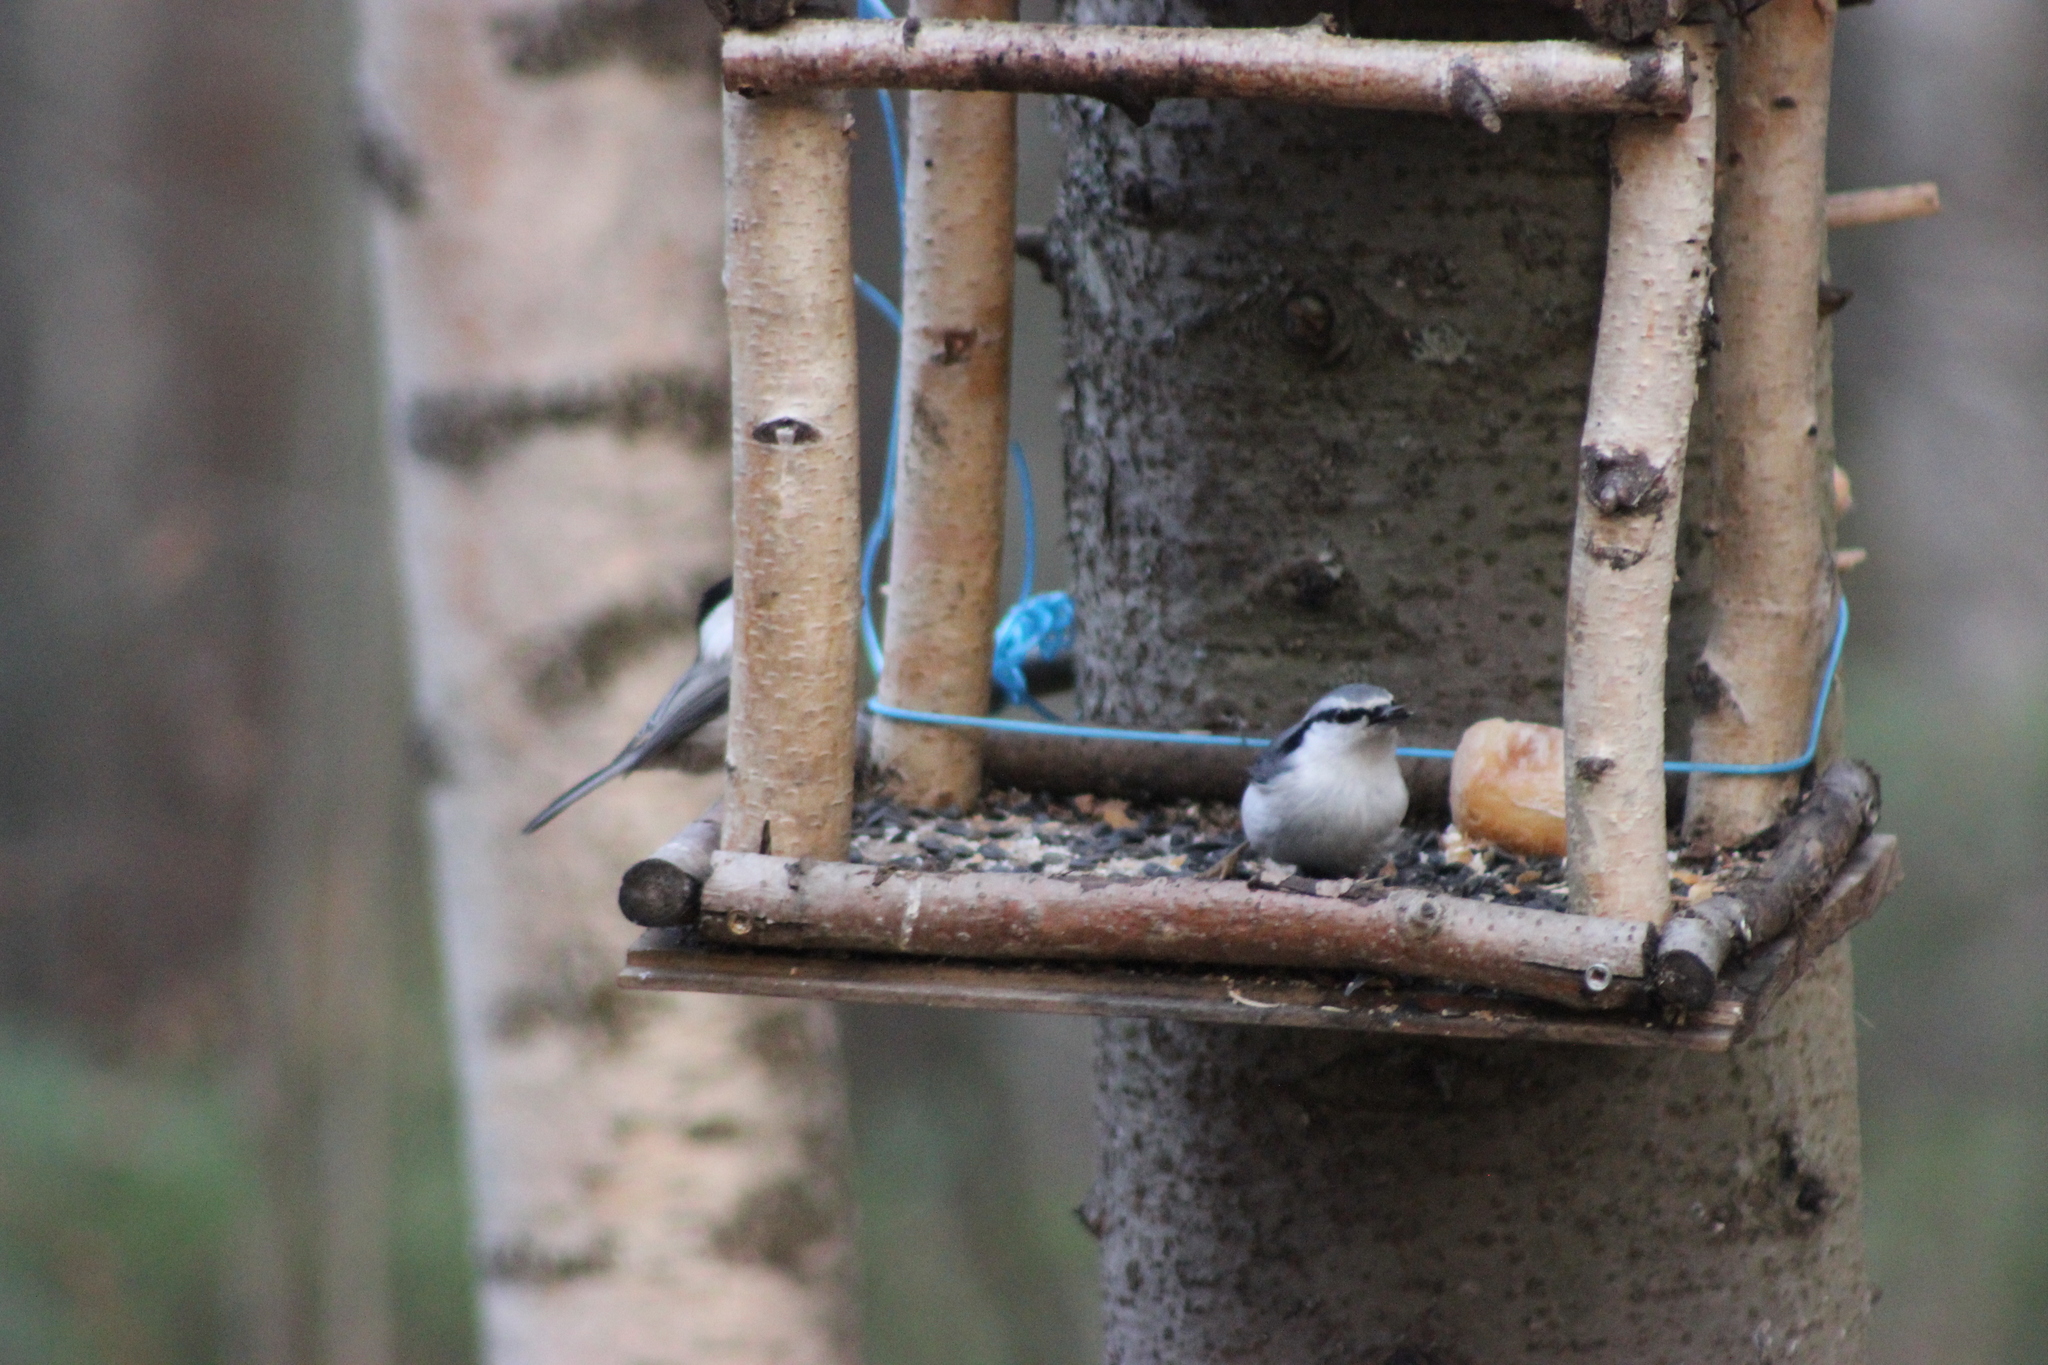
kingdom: Animalia
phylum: Chordata
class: Aves
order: Passeriformes
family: Sittidae
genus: Sitta
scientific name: Sitta europaea
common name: Eurasian nuthatch
